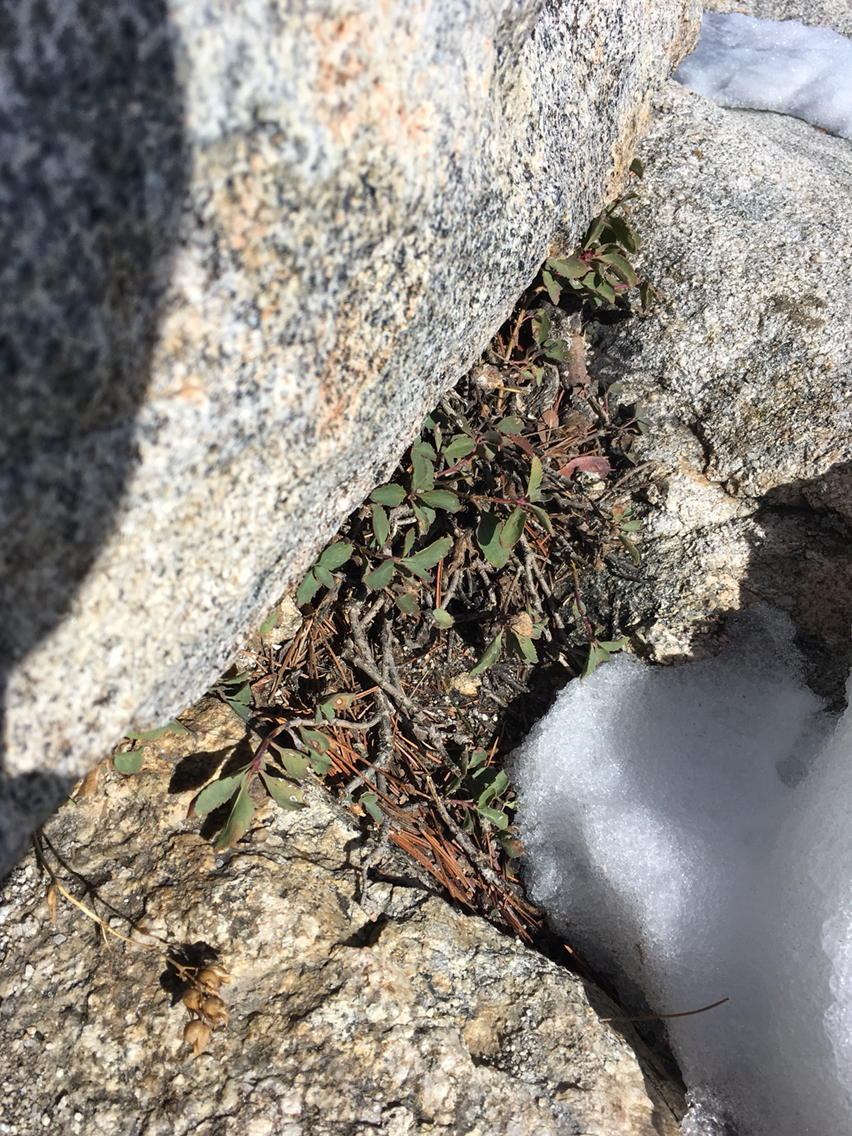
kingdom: Plantae
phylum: Tracheophyta
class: Magnoliopsida
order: Lamiales
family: Plantaginaceae
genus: Penstemon
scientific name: Penstemon newberryi
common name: Mountain-pride
